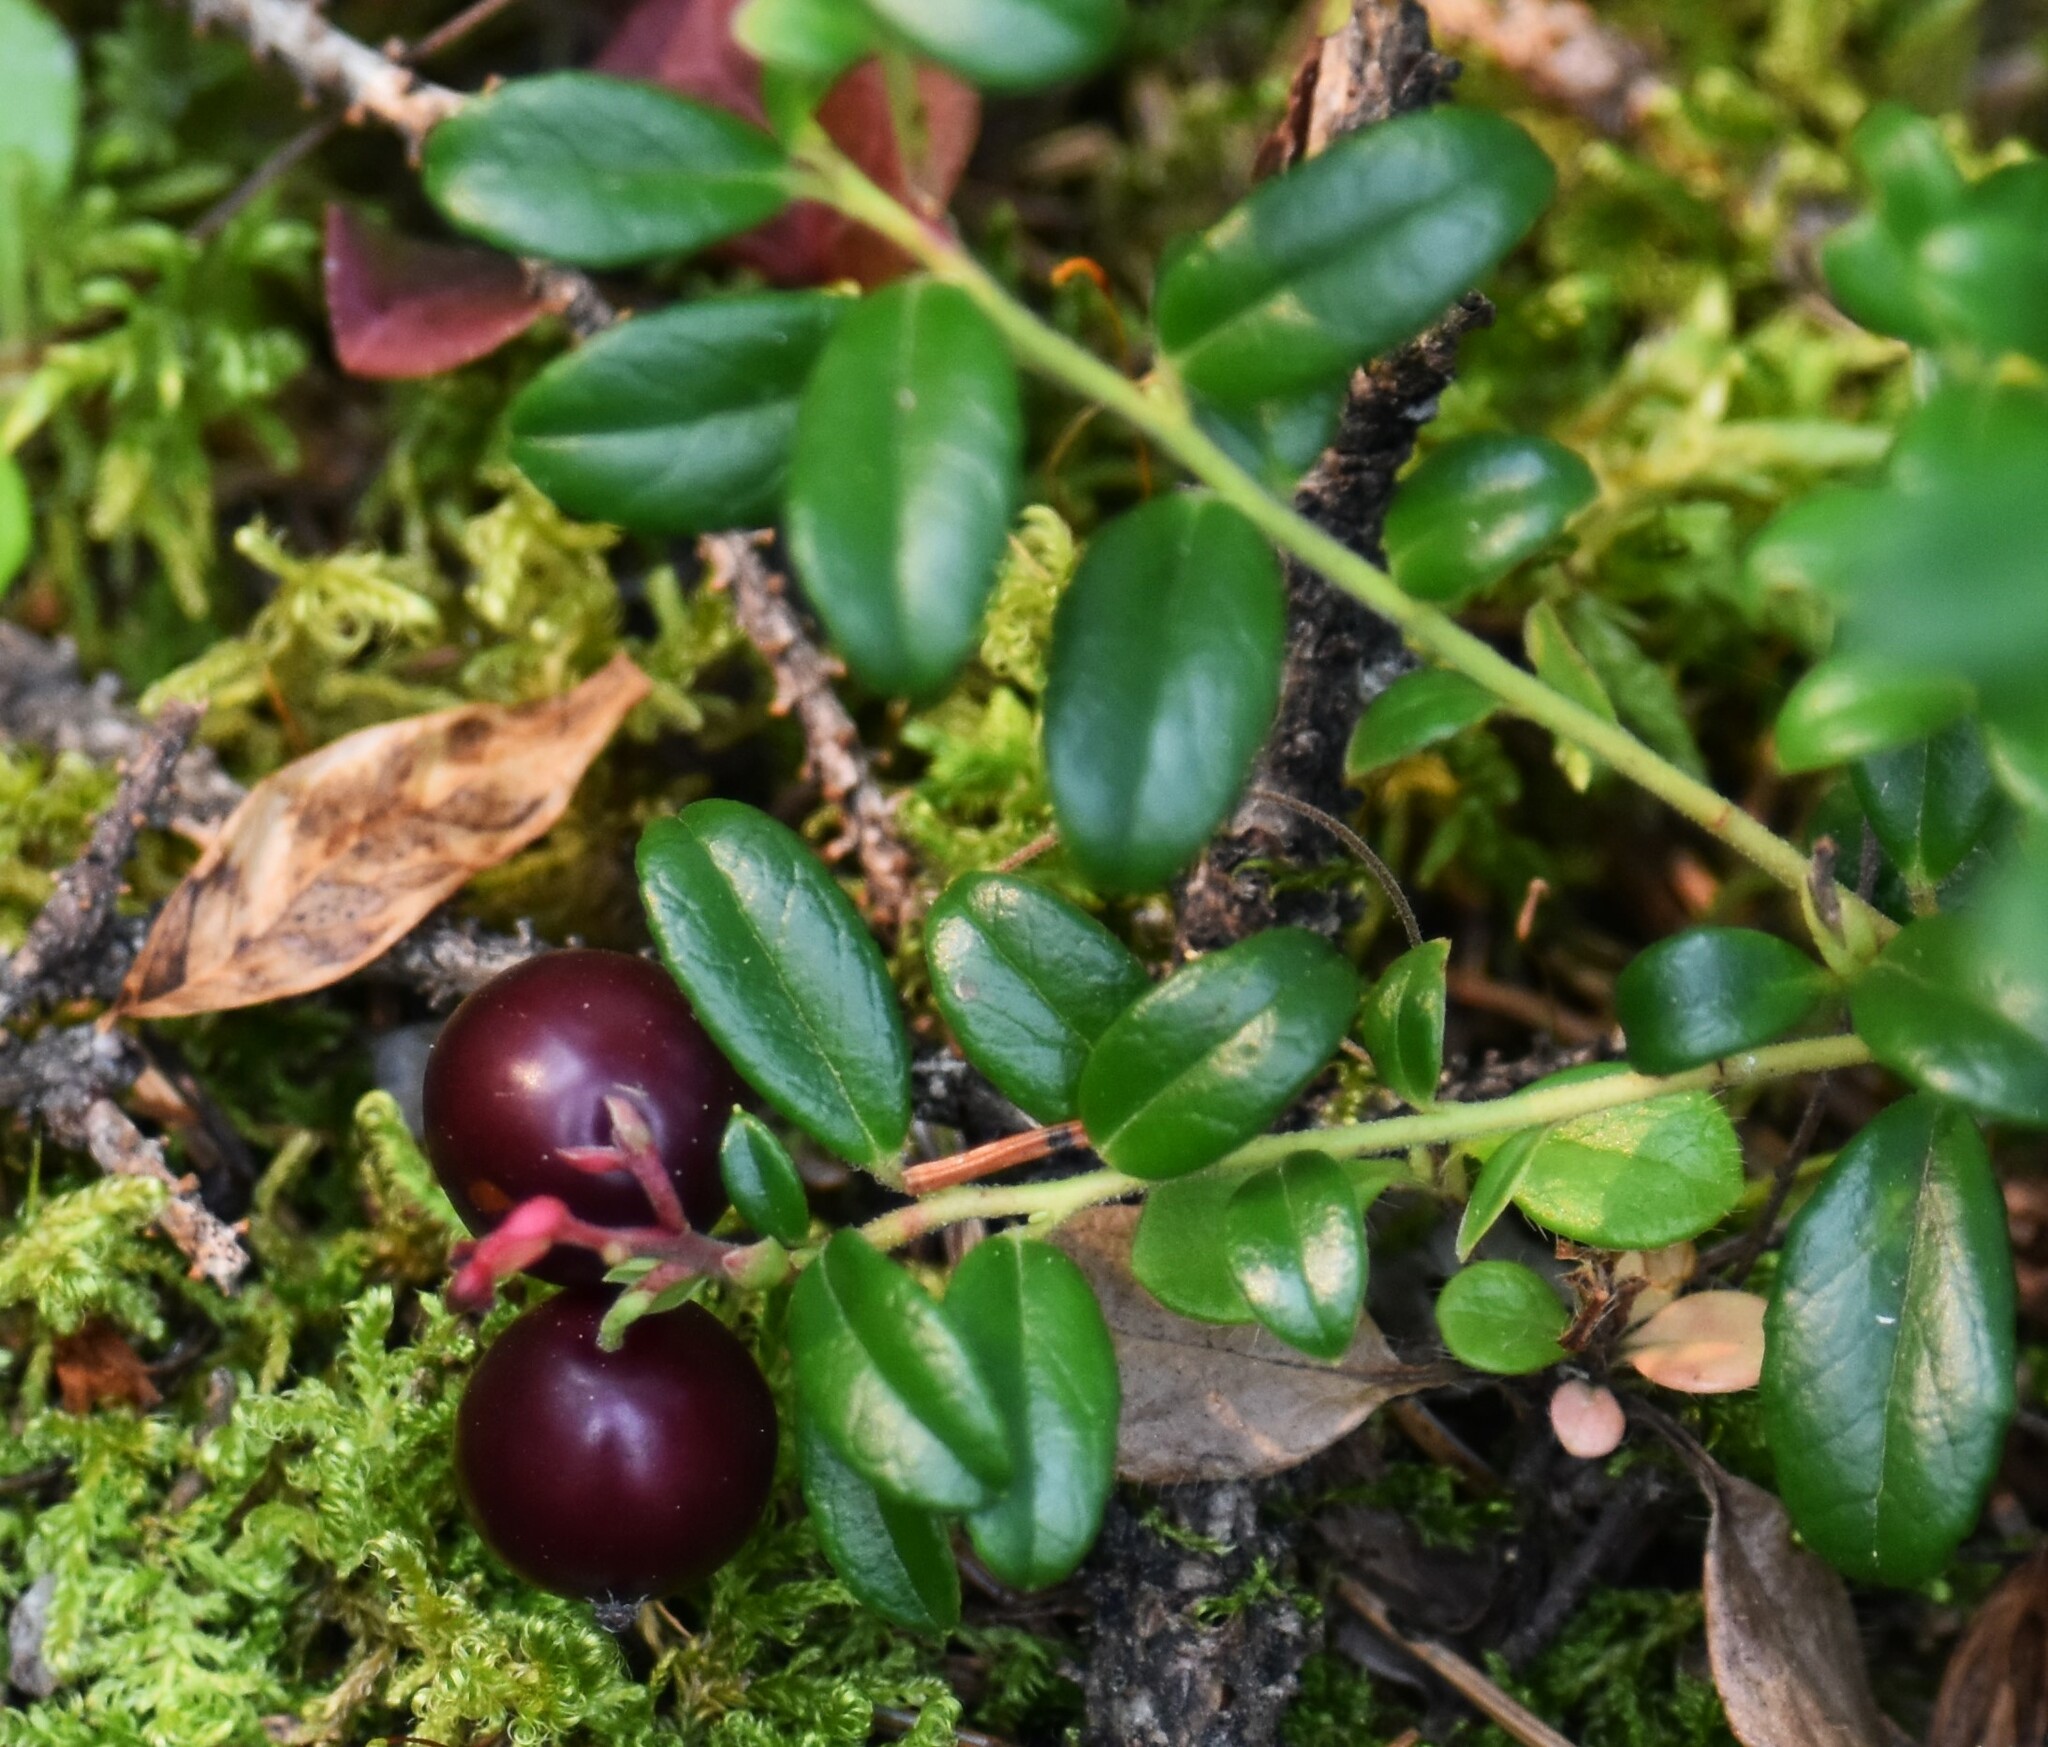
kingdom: Plantae
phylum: Tracheophyta
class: Magnoliopsida
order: Ericales
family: Ericaceae
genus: Vaccinium
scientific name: Vaccinium vitis-idaea
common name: Cowberry
